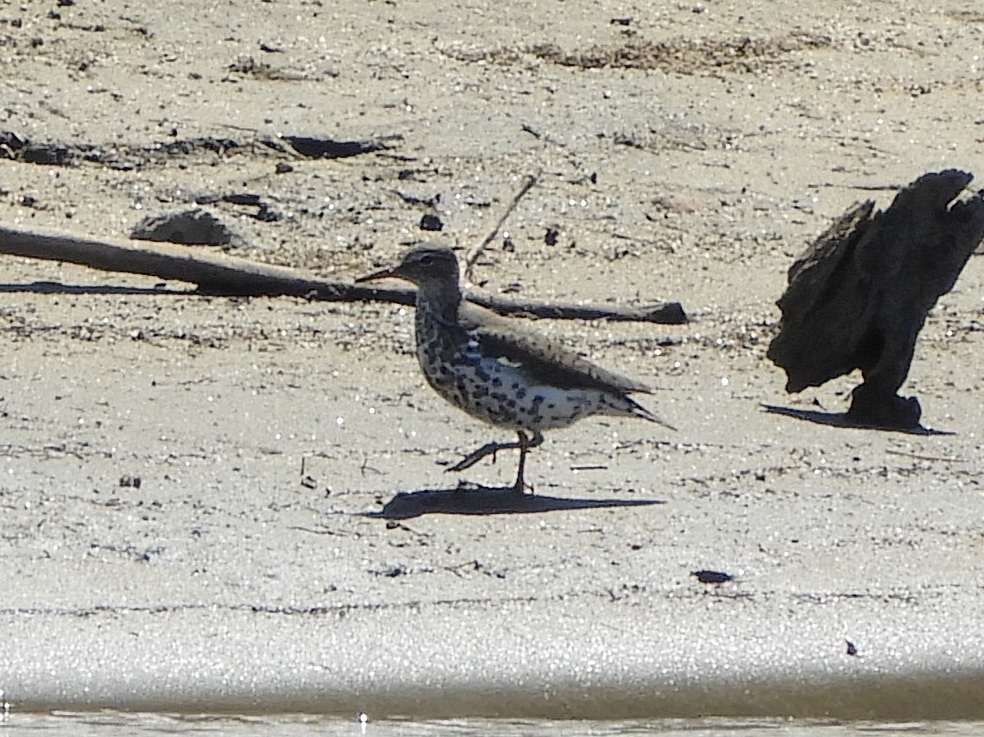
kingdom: Animalia
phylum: Chordata
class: Aves
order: Charadriiformes
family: Scolopacidae
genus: Actitis
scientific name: Actitis macularius
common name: Spotted sandpiper
